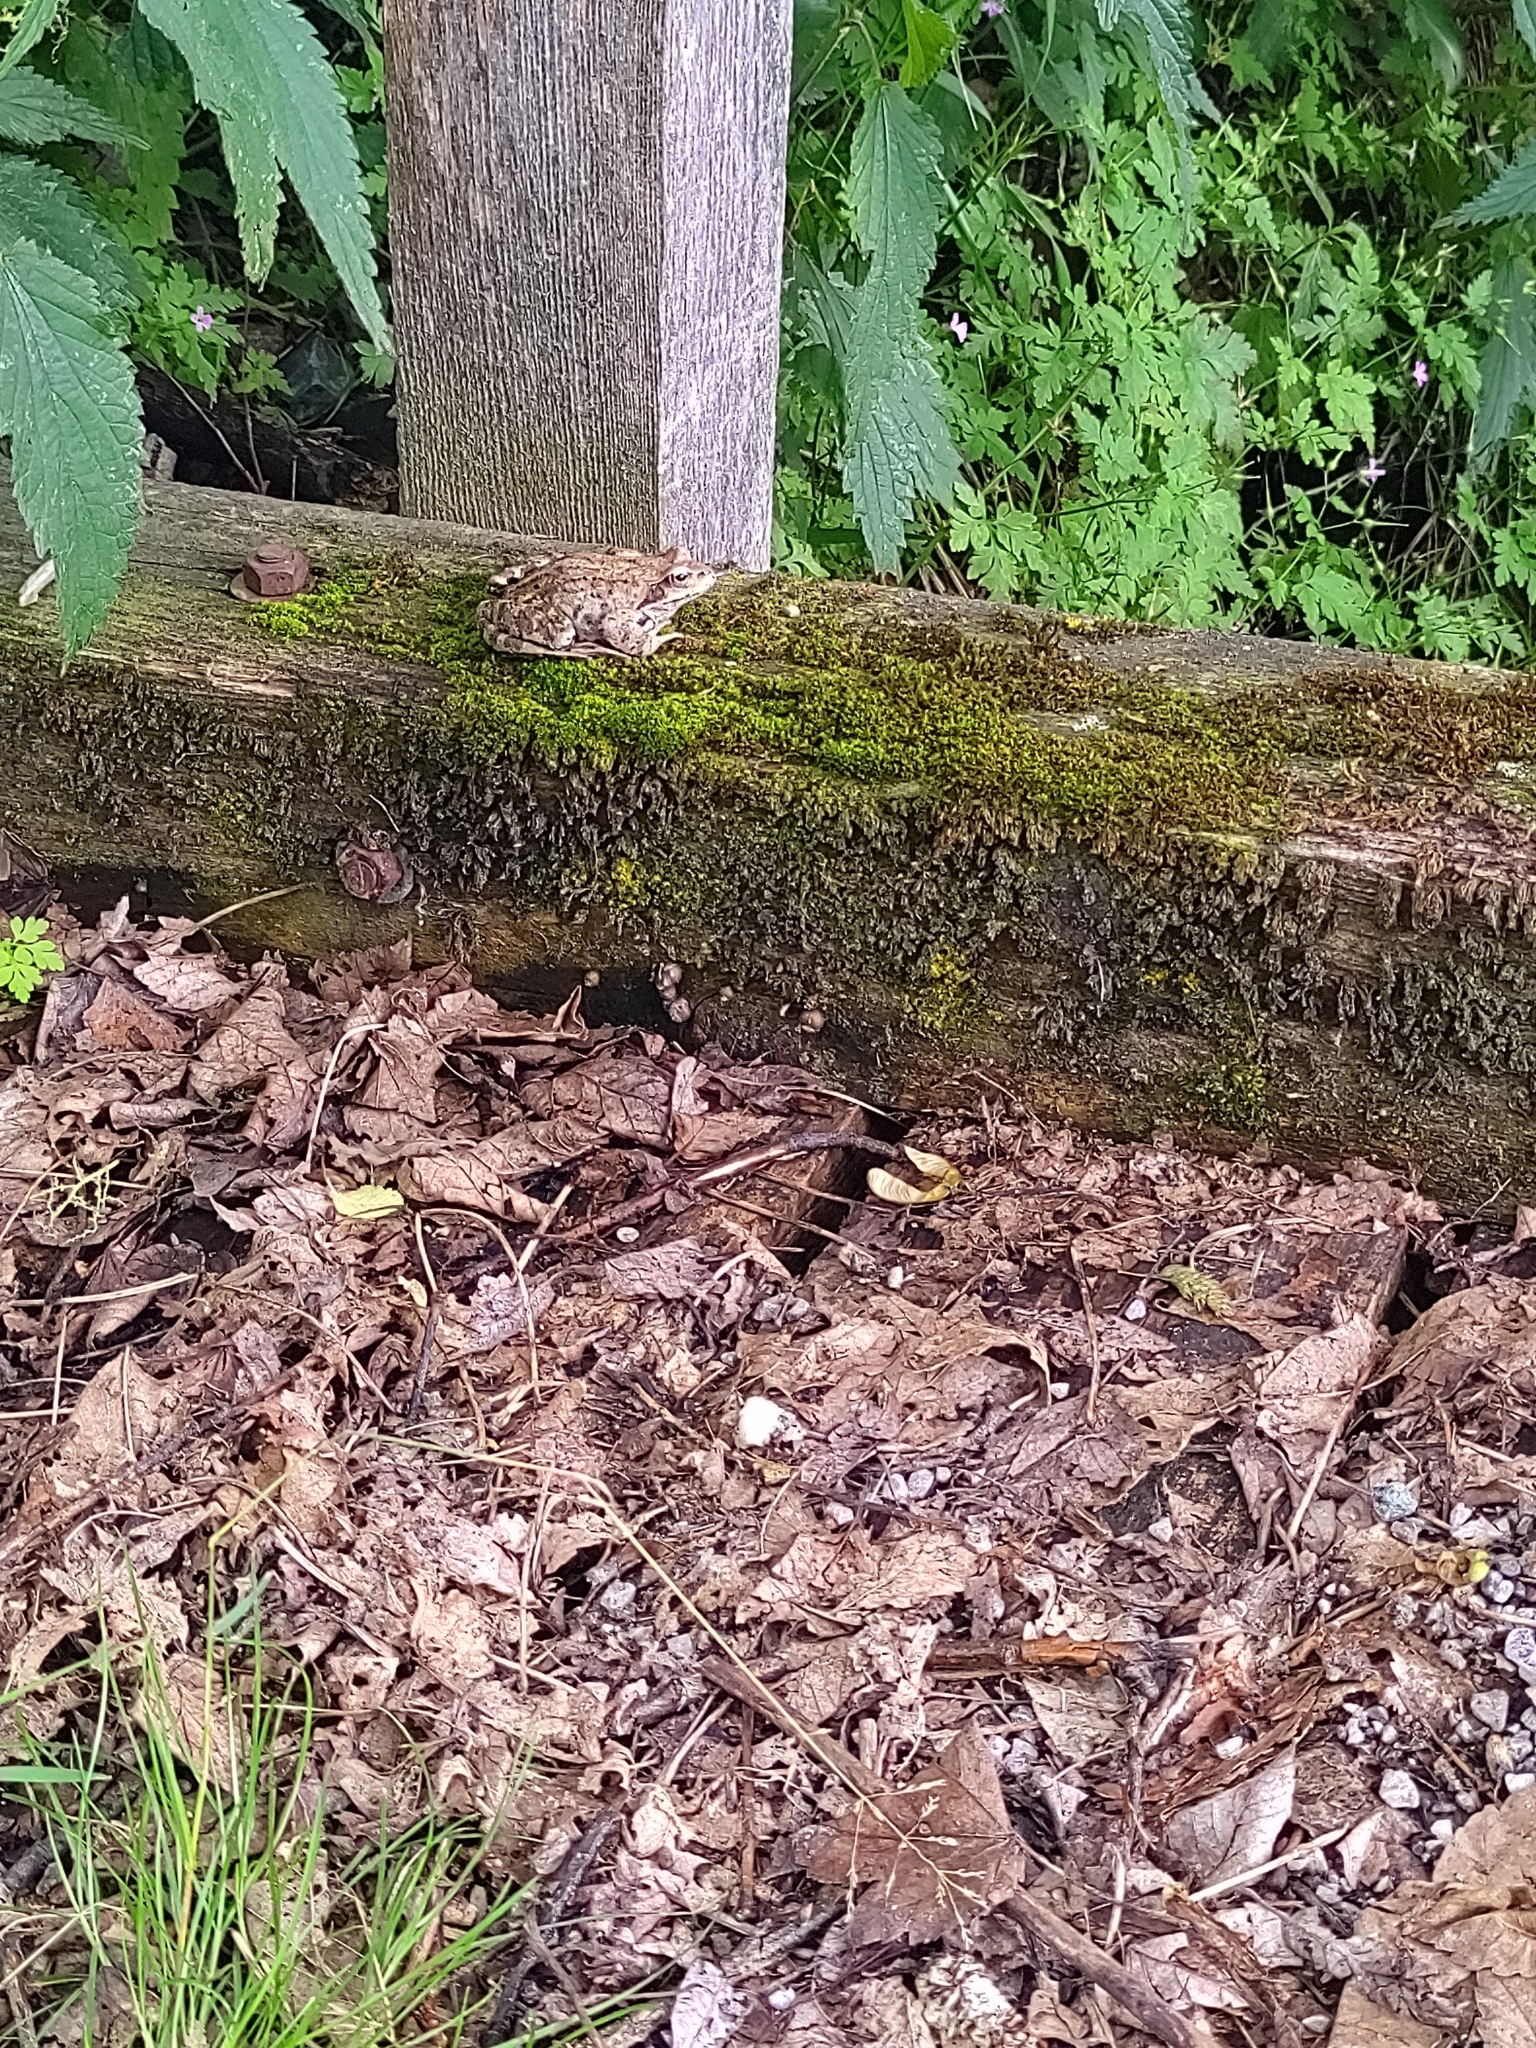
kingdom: Animalia
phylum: Chordata
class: Amphibia
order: Anura
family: Ranidae
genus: Rana
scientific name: Rana temporaria
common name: Common frog
